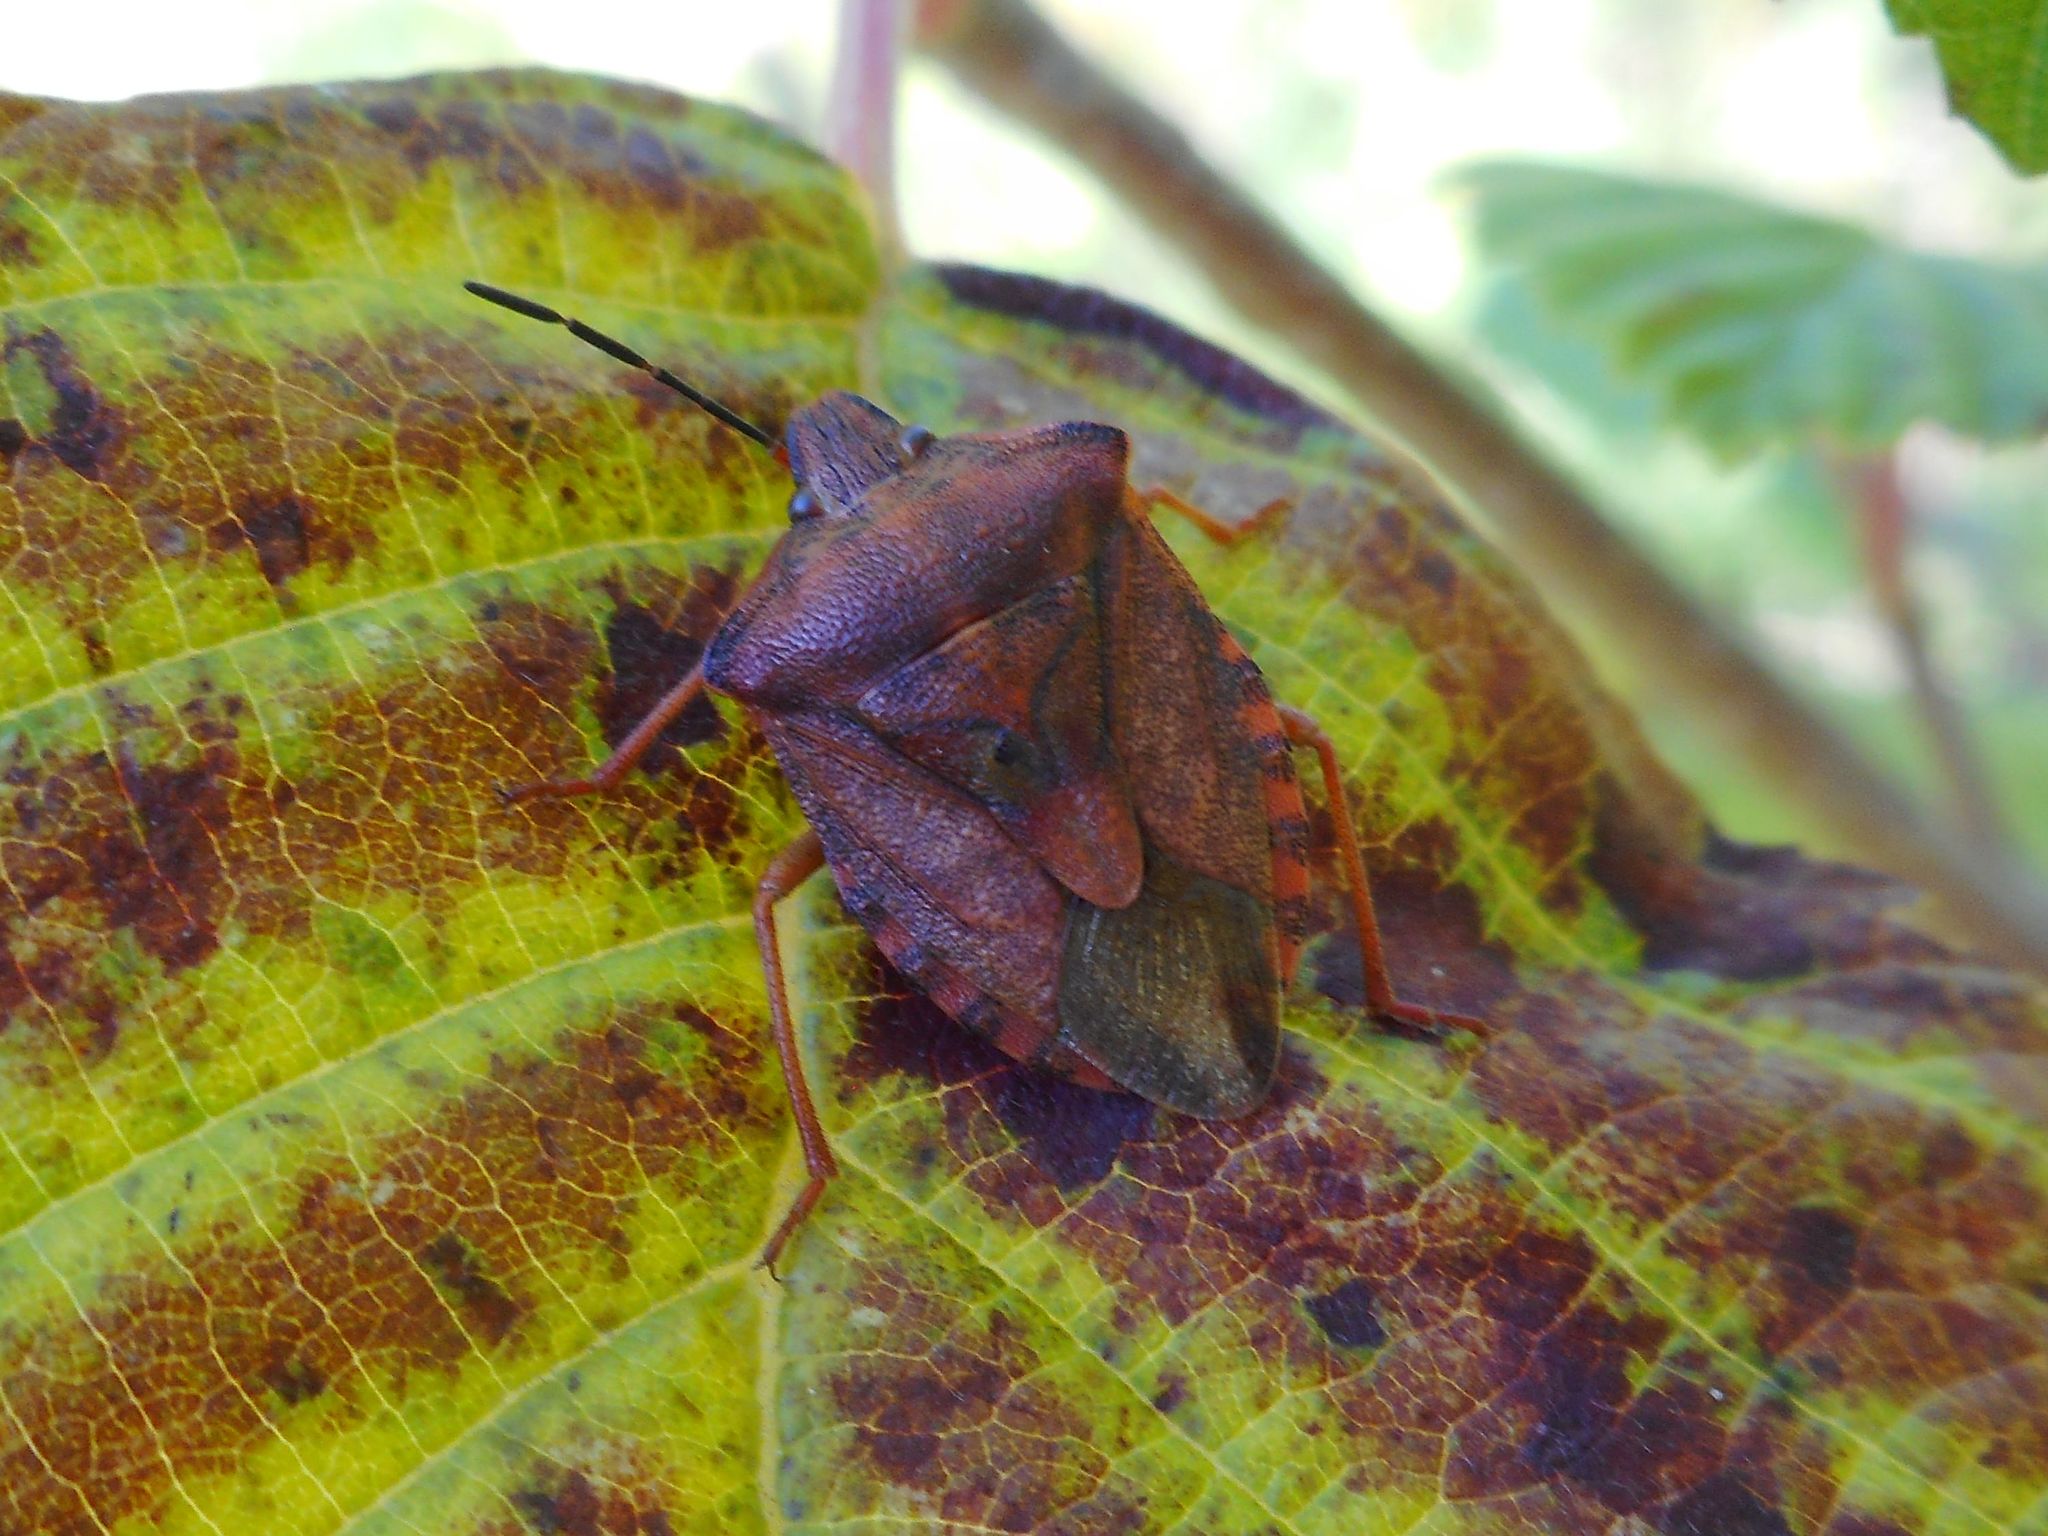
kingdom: Animalia
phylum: Arthropoda
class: Insecta
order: Hemiptera
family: Pentatomidae
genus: Carpocoris
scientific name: Carpocoris purpureipennis
